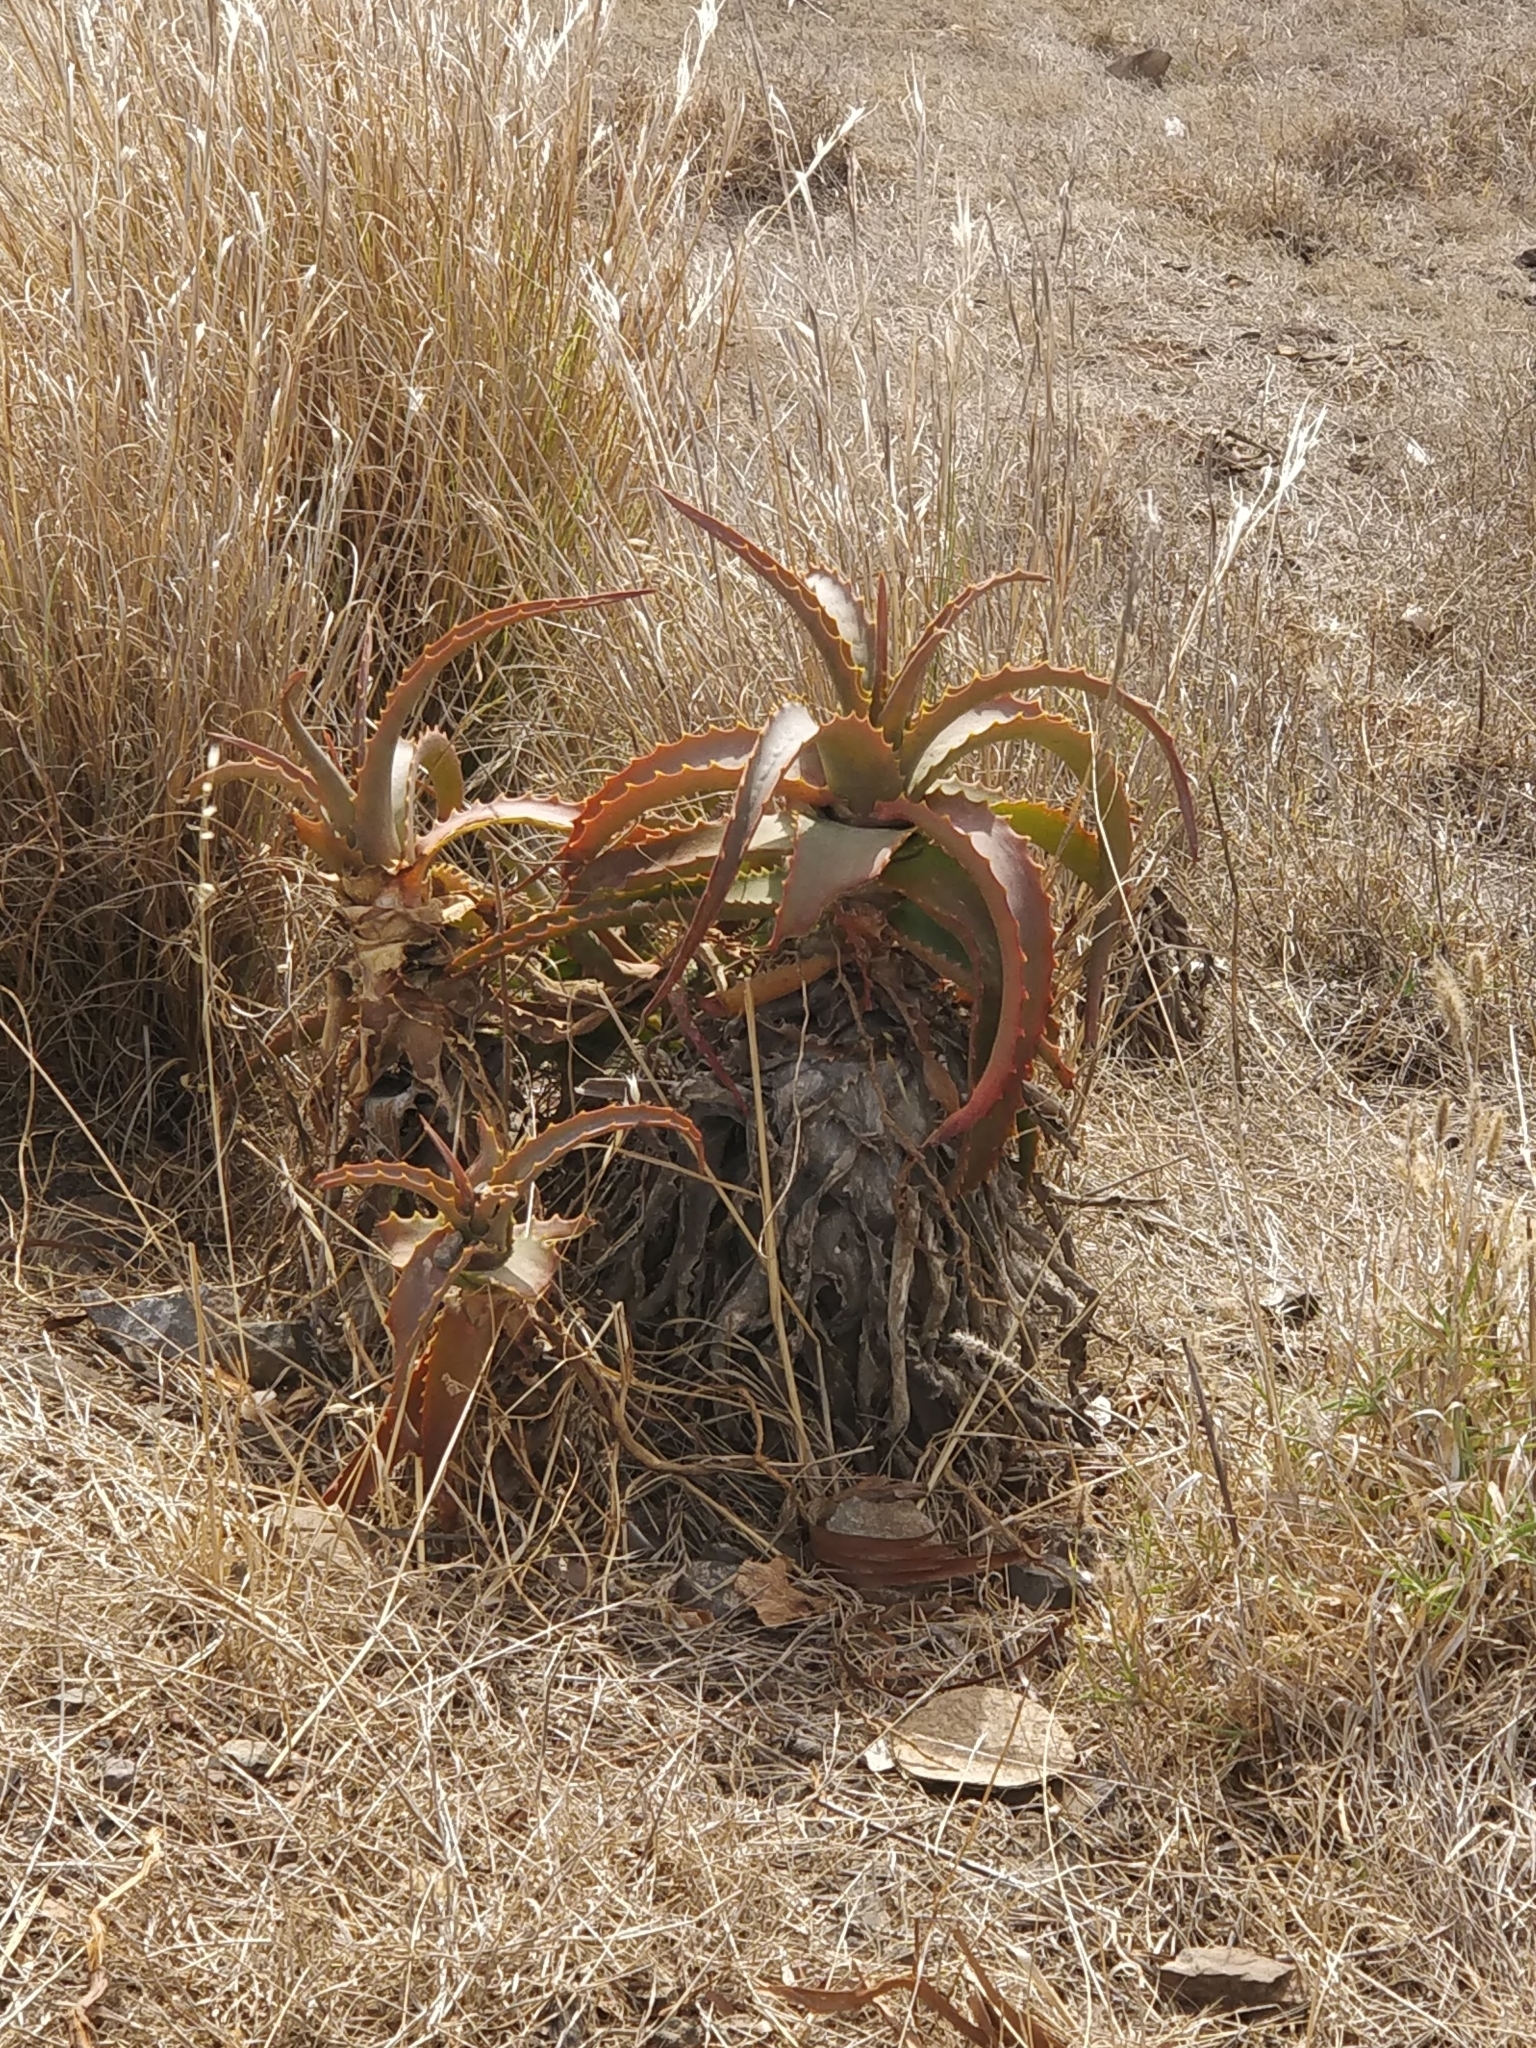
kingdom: Plantae
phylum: Tracheophyta
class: Liliopsida
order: Asparagales
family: Asphodelaceae
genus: Aloe
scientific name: Aloe arborescens
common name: Candelabra aloe
